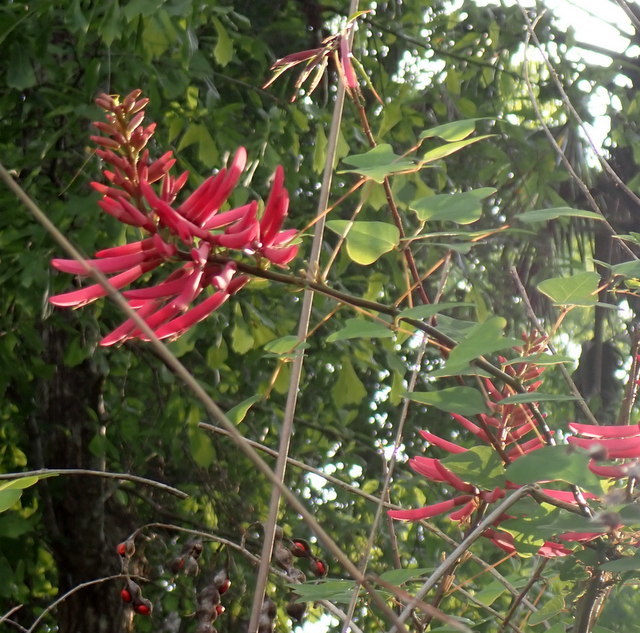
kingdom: Plantae
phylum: Tracheophyta
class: Magnoliopsida
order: Fabales
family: Fabaceae
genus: Erythrina
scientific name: Erythrina herbacea
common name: Coral-bean
